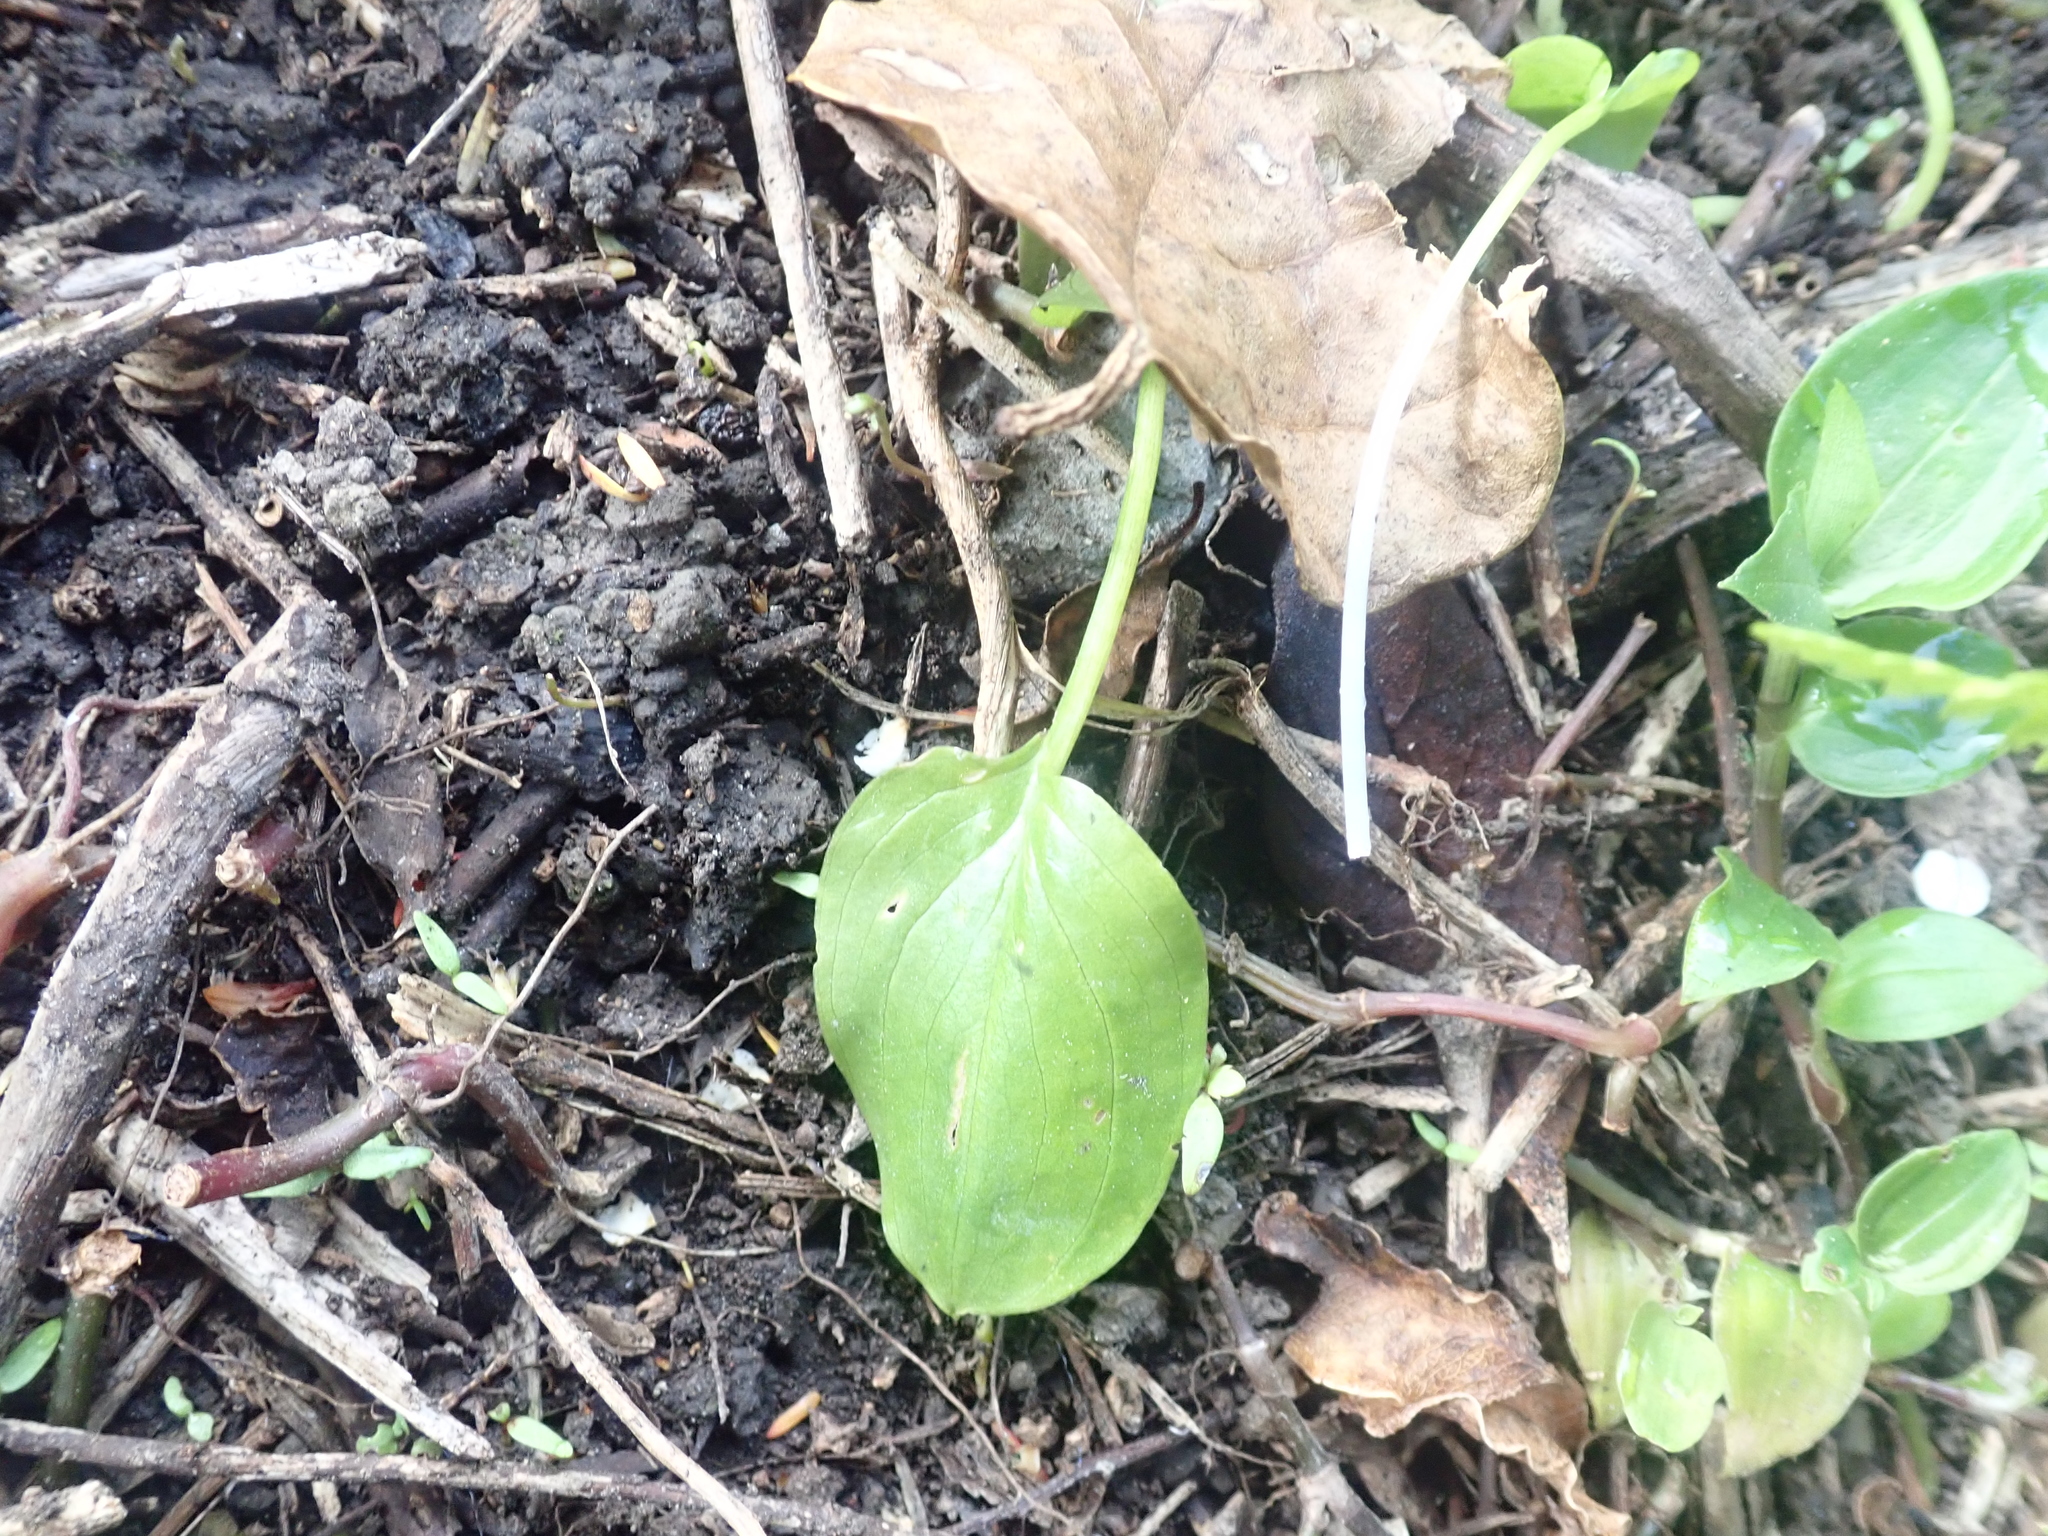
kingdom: Plantae
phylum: Tracheophyta
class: Liliopsida
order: Alismatales
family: Araceae
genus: Zantedeschia
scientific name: Zantedeschia aethiopica
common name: Altar-lily
